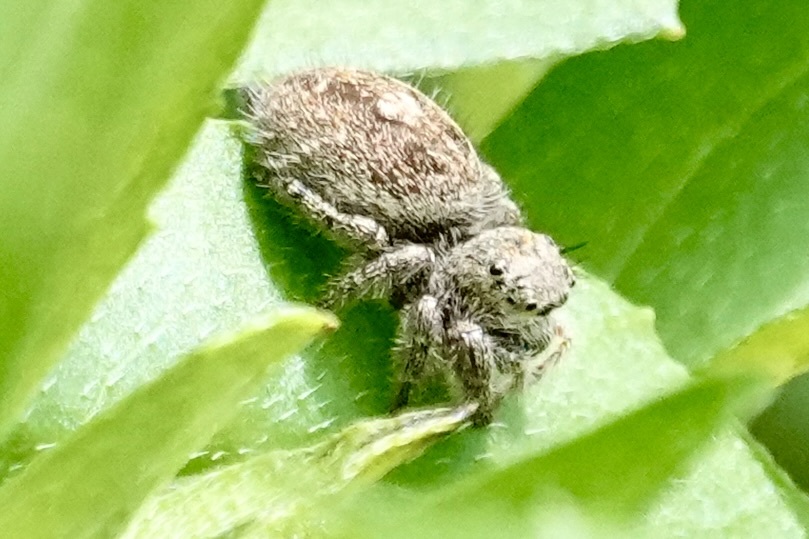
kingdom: Animalia
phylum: Arthropoda
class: Arachnida
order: Araneae
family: Salticidae
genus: Phidippus
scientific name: Phidippus princeps
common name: Grayish jumping spider
